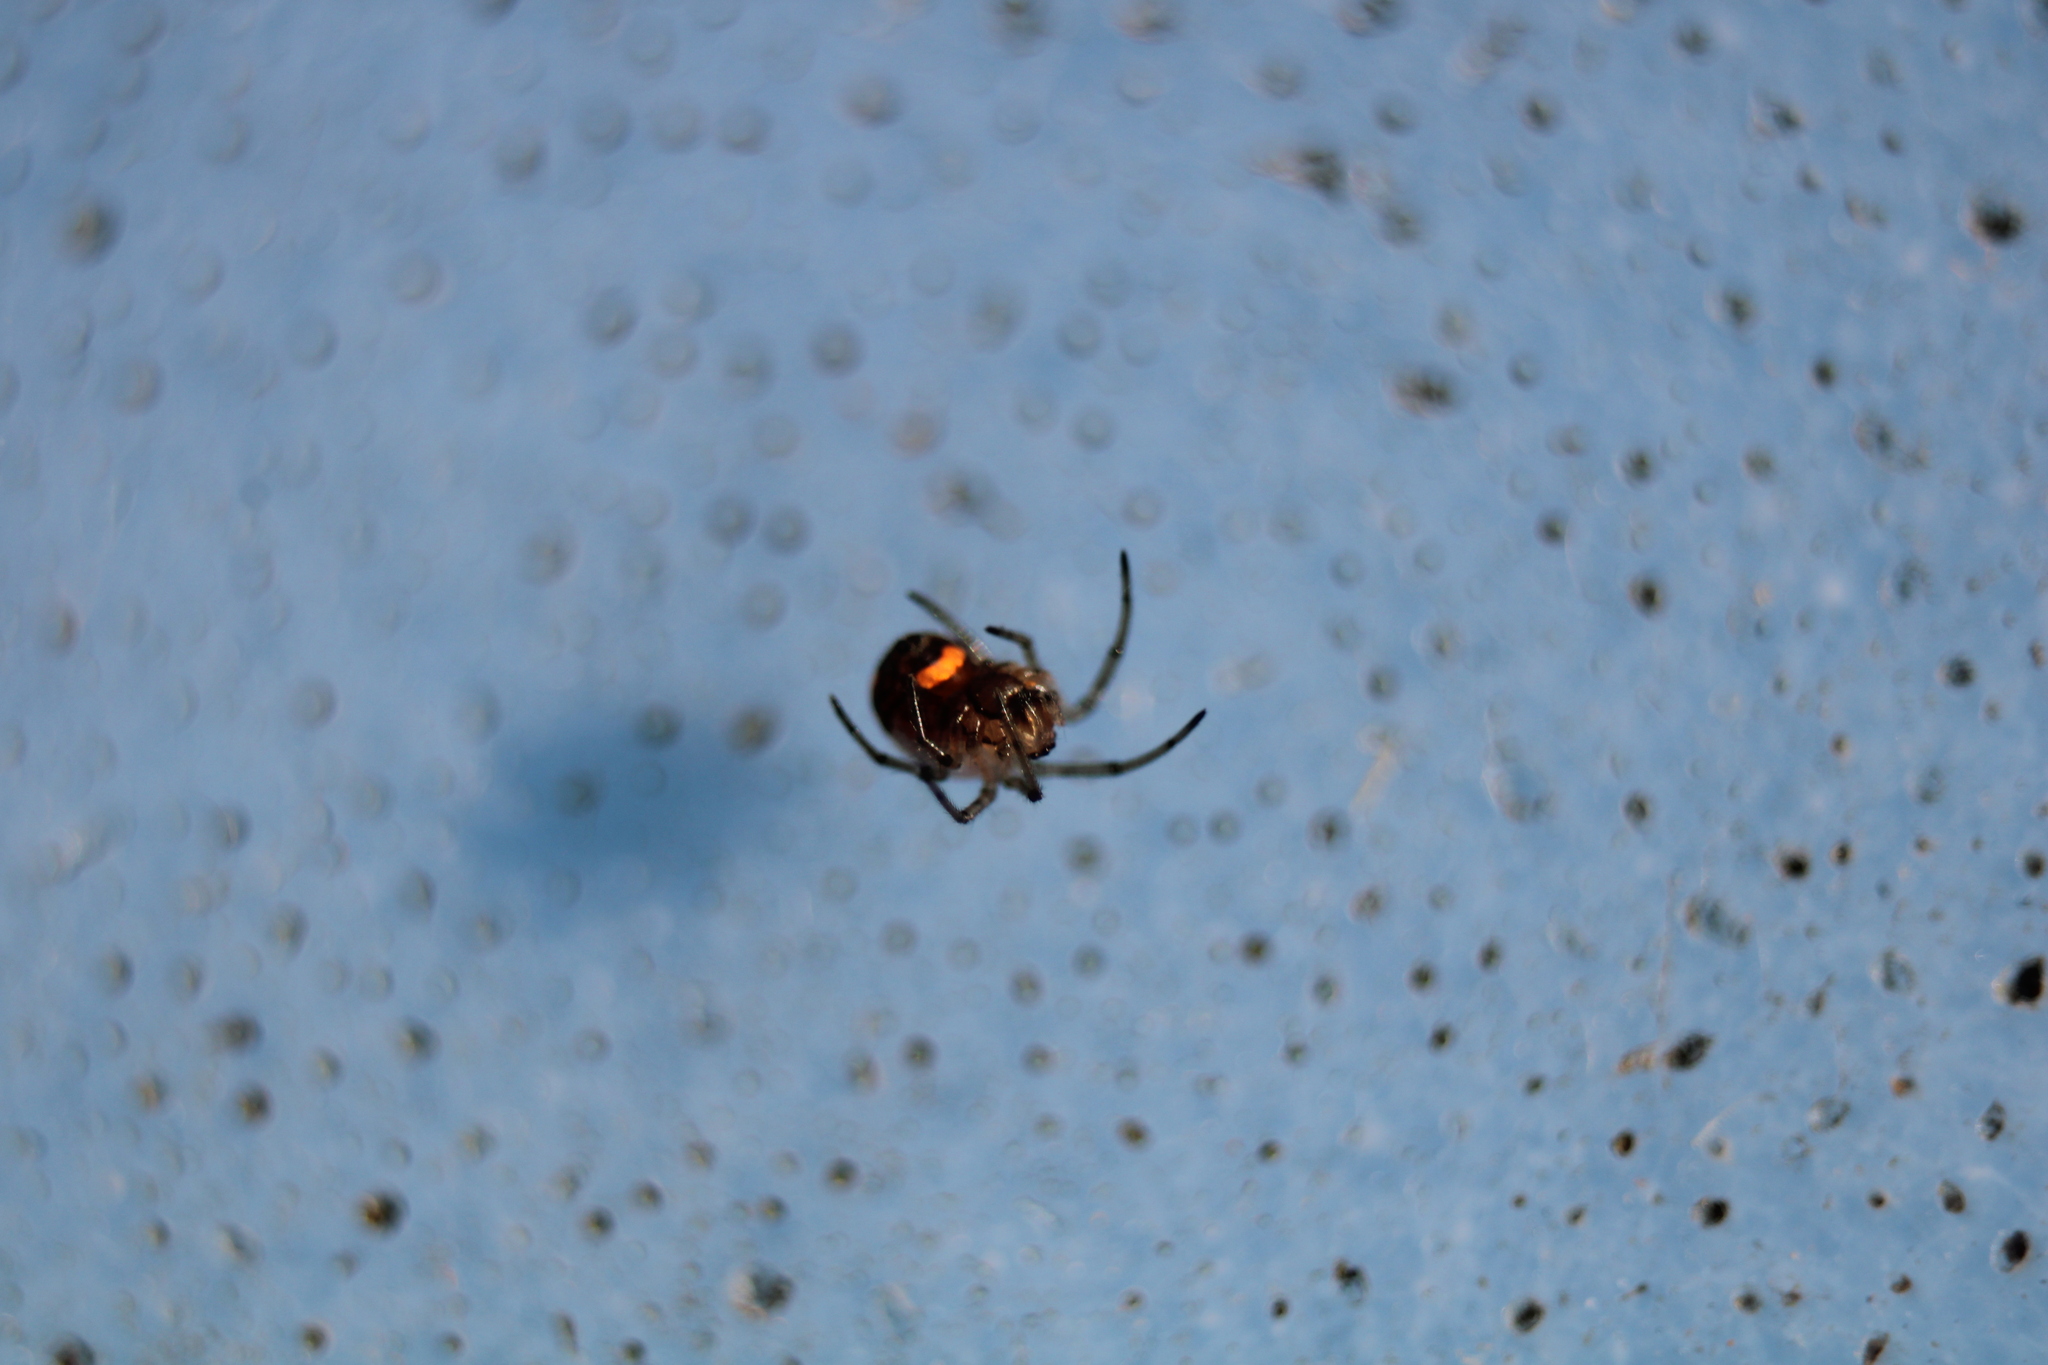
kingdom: Animalia
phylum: Arthropoda
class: Arachnida
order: Araneae
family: Tetragnathidae
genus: Leucauge
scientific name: Leucauge venusta
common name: Longjawed orb weavers
